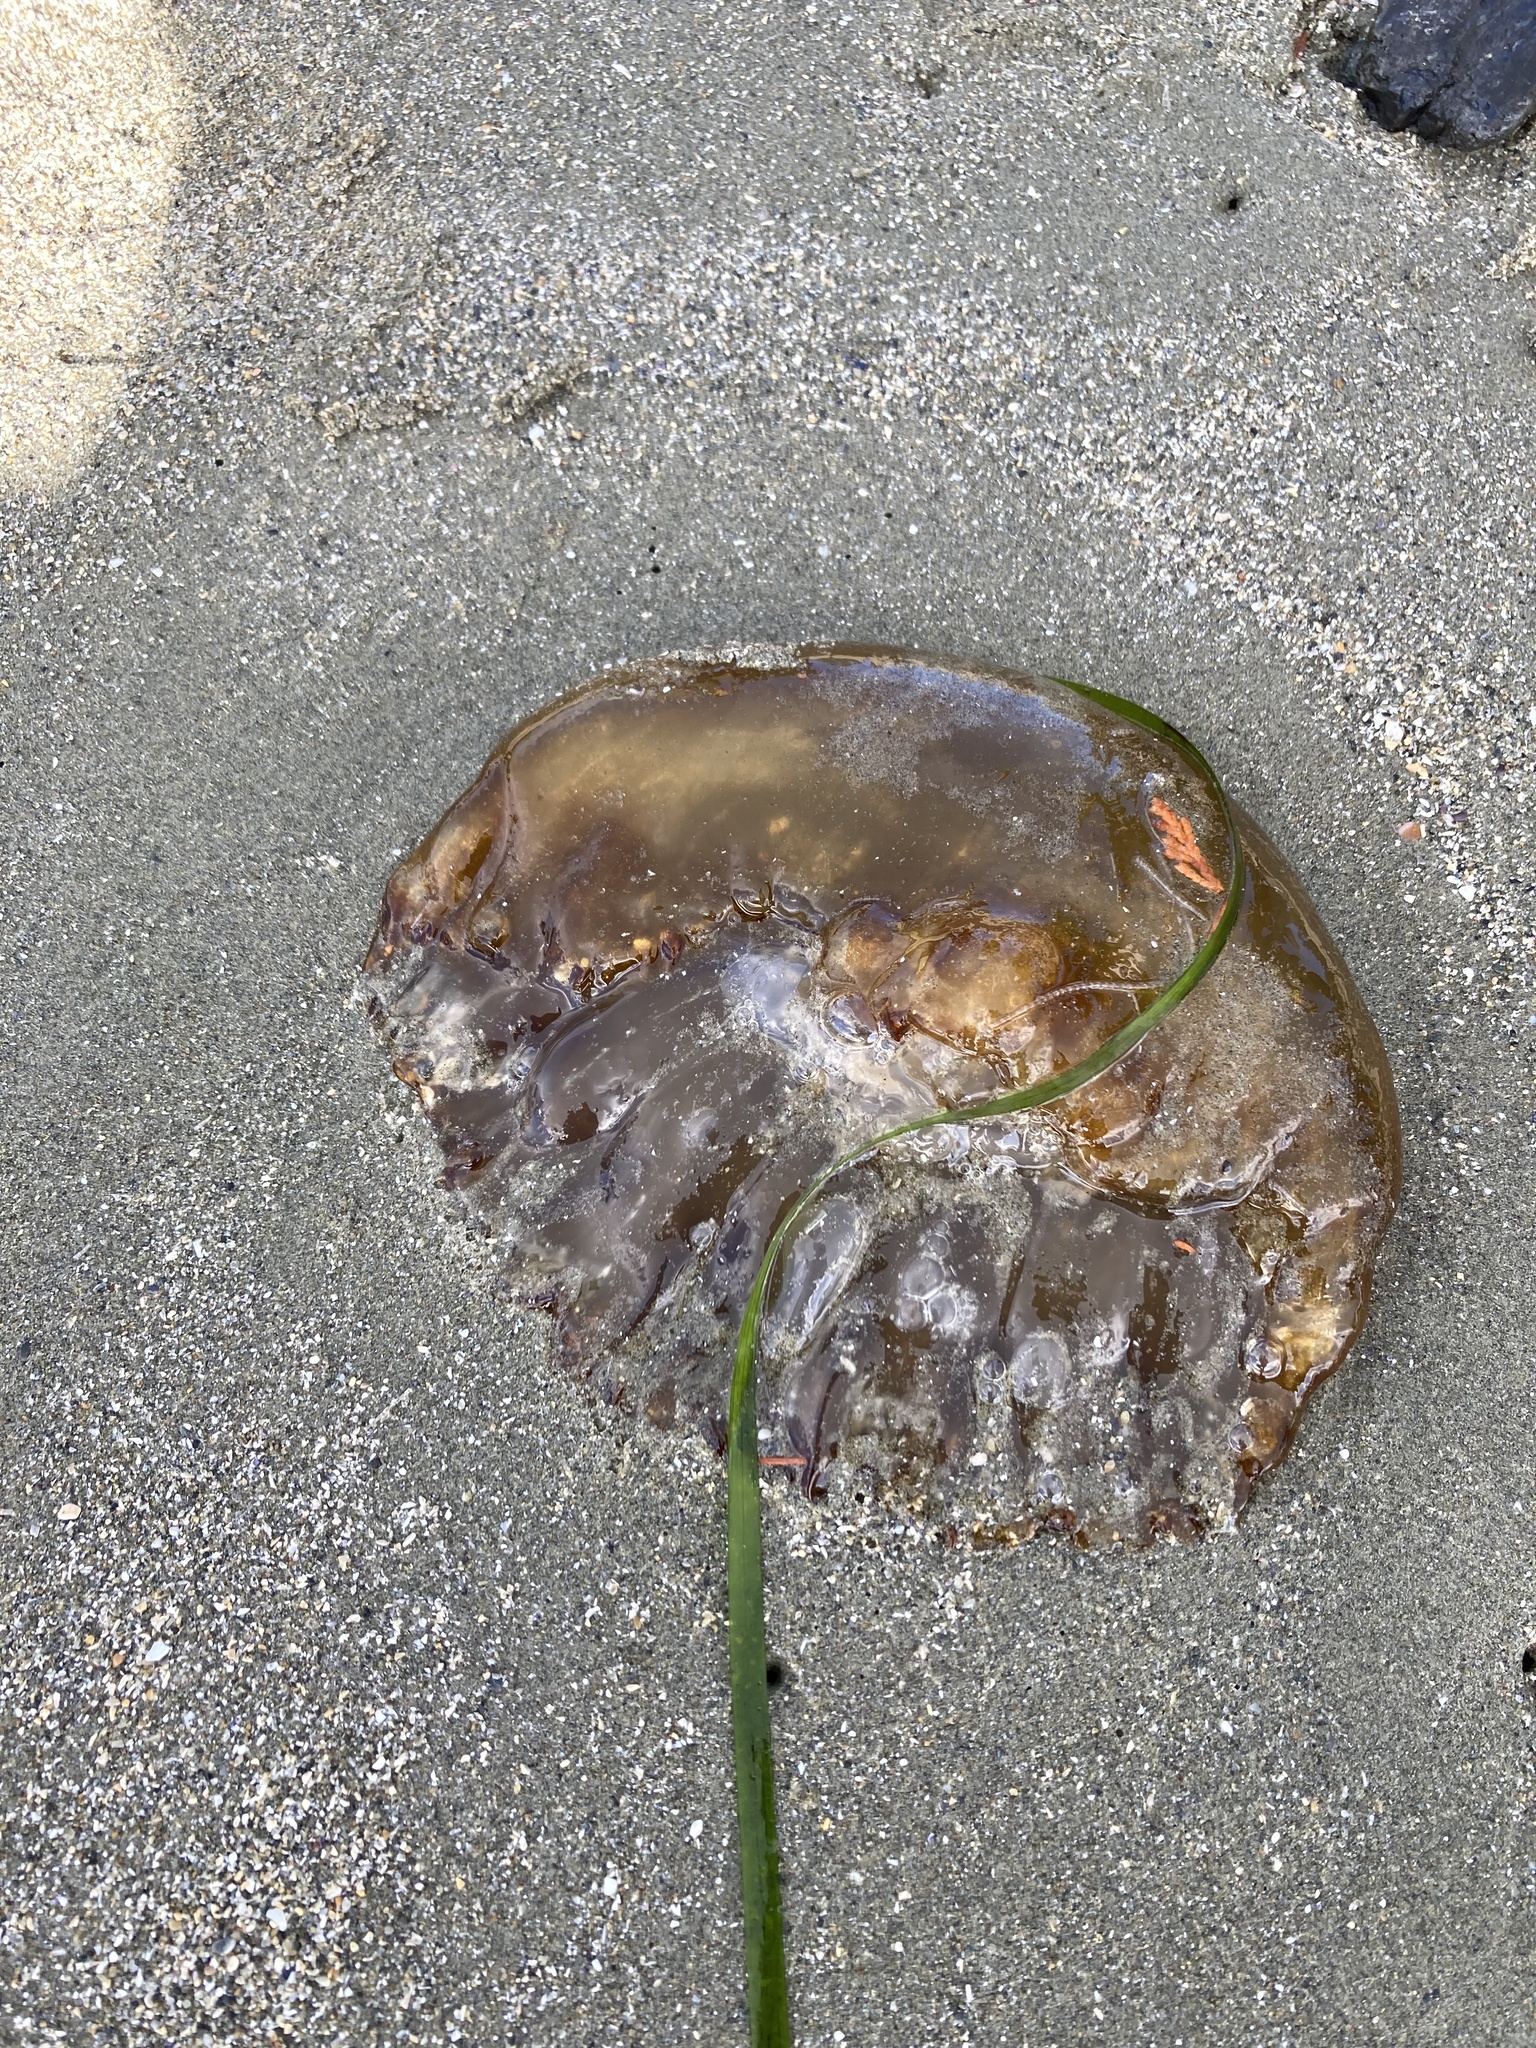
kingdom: Animalia
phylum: Cnidaria
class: Scyphozoa
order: Semaeostomeae
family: Pelagiidae
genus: Chrysaora
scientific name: Chrysaora fuscescens
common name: Sea nettle
